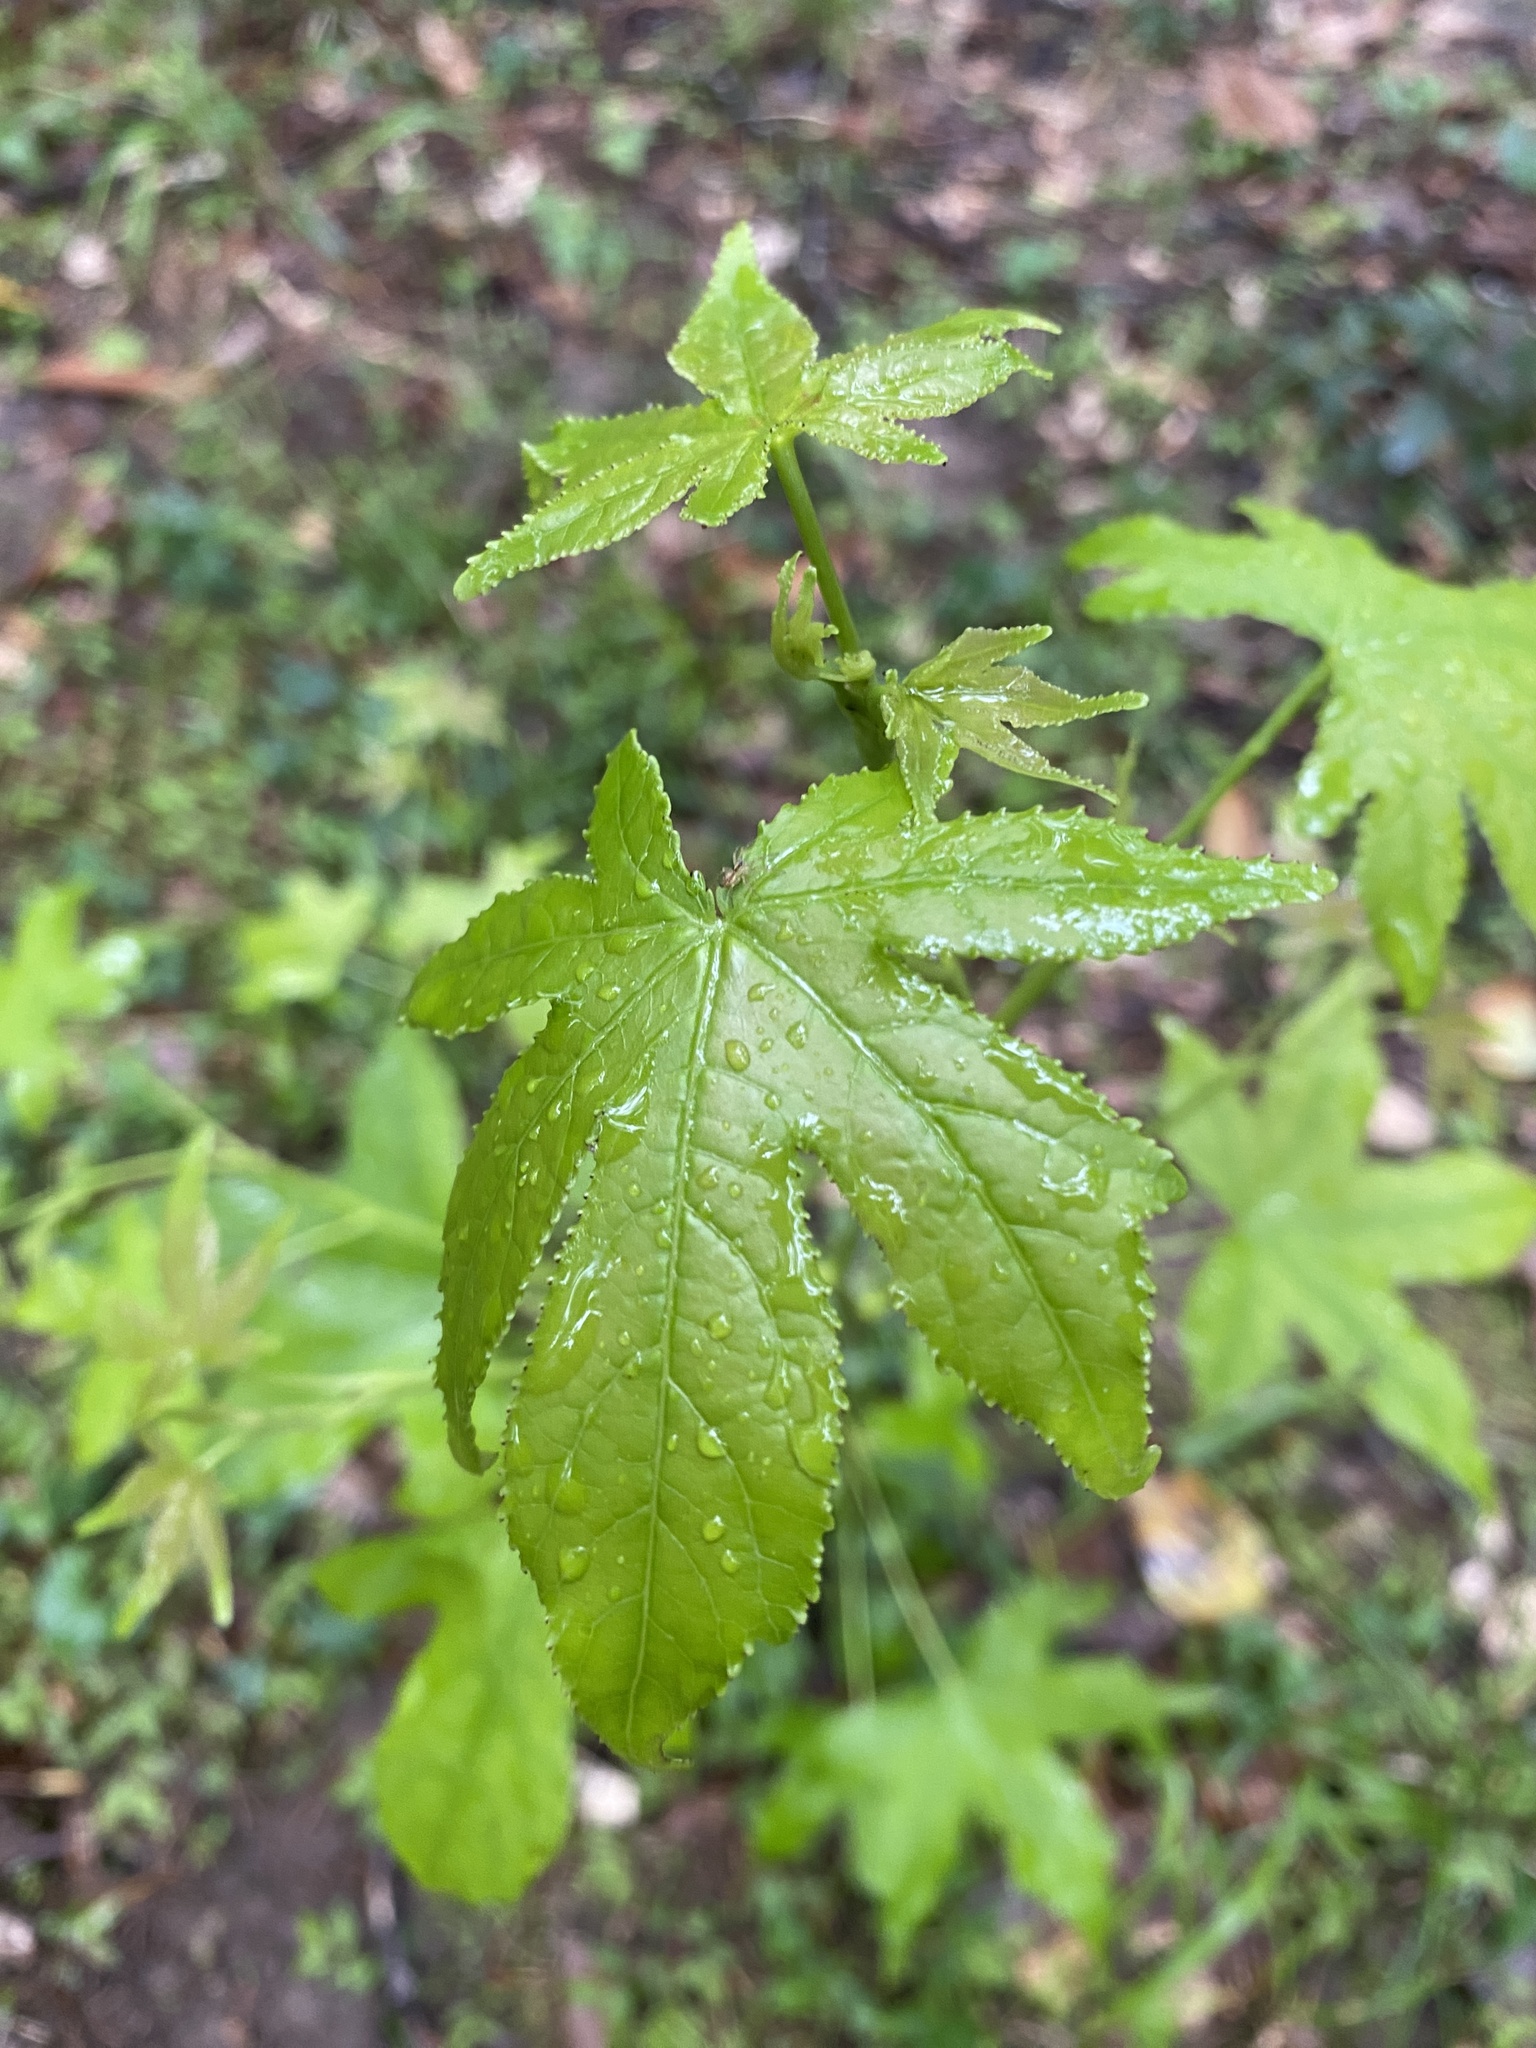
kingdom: Plantae
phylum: Tracheophyta
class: Magnoliopsida
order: Saxifragales
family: Altingiaceae
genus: Liquidambar
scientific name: Liquidambar styraciflua
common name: Sweet gum
